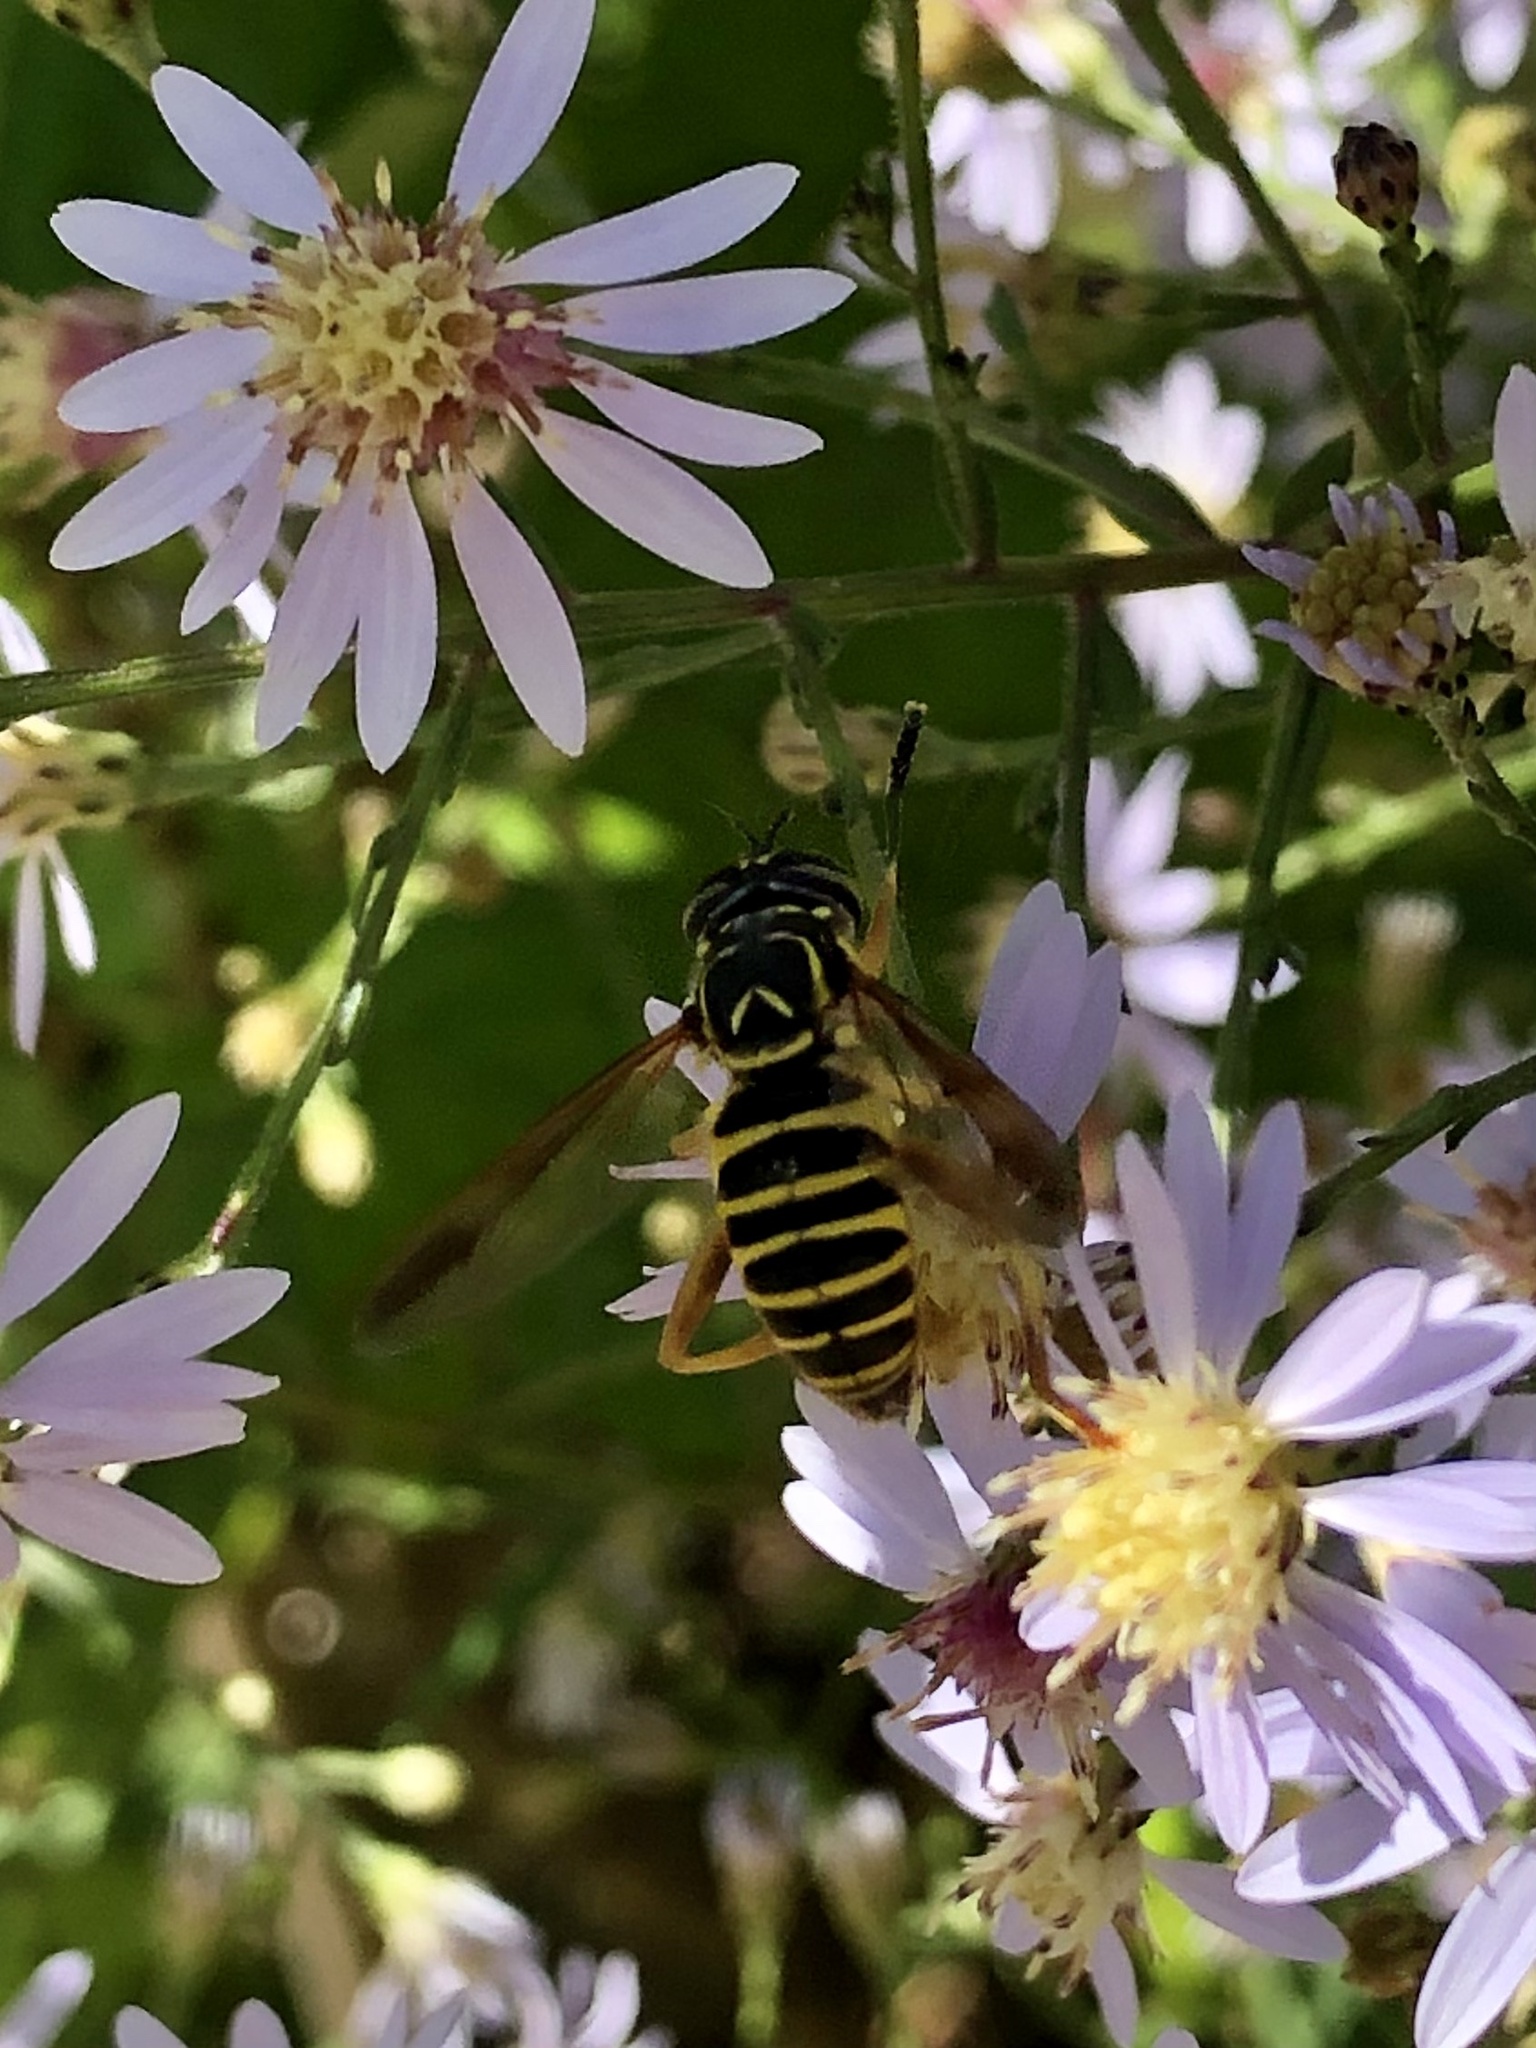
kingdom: Animalia
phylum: Arthropoda
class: Insecta
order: Diptera
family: Syrphidae
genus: Spilomyia
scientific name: Spilomyia longicornis
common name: Eastern hornet fly
